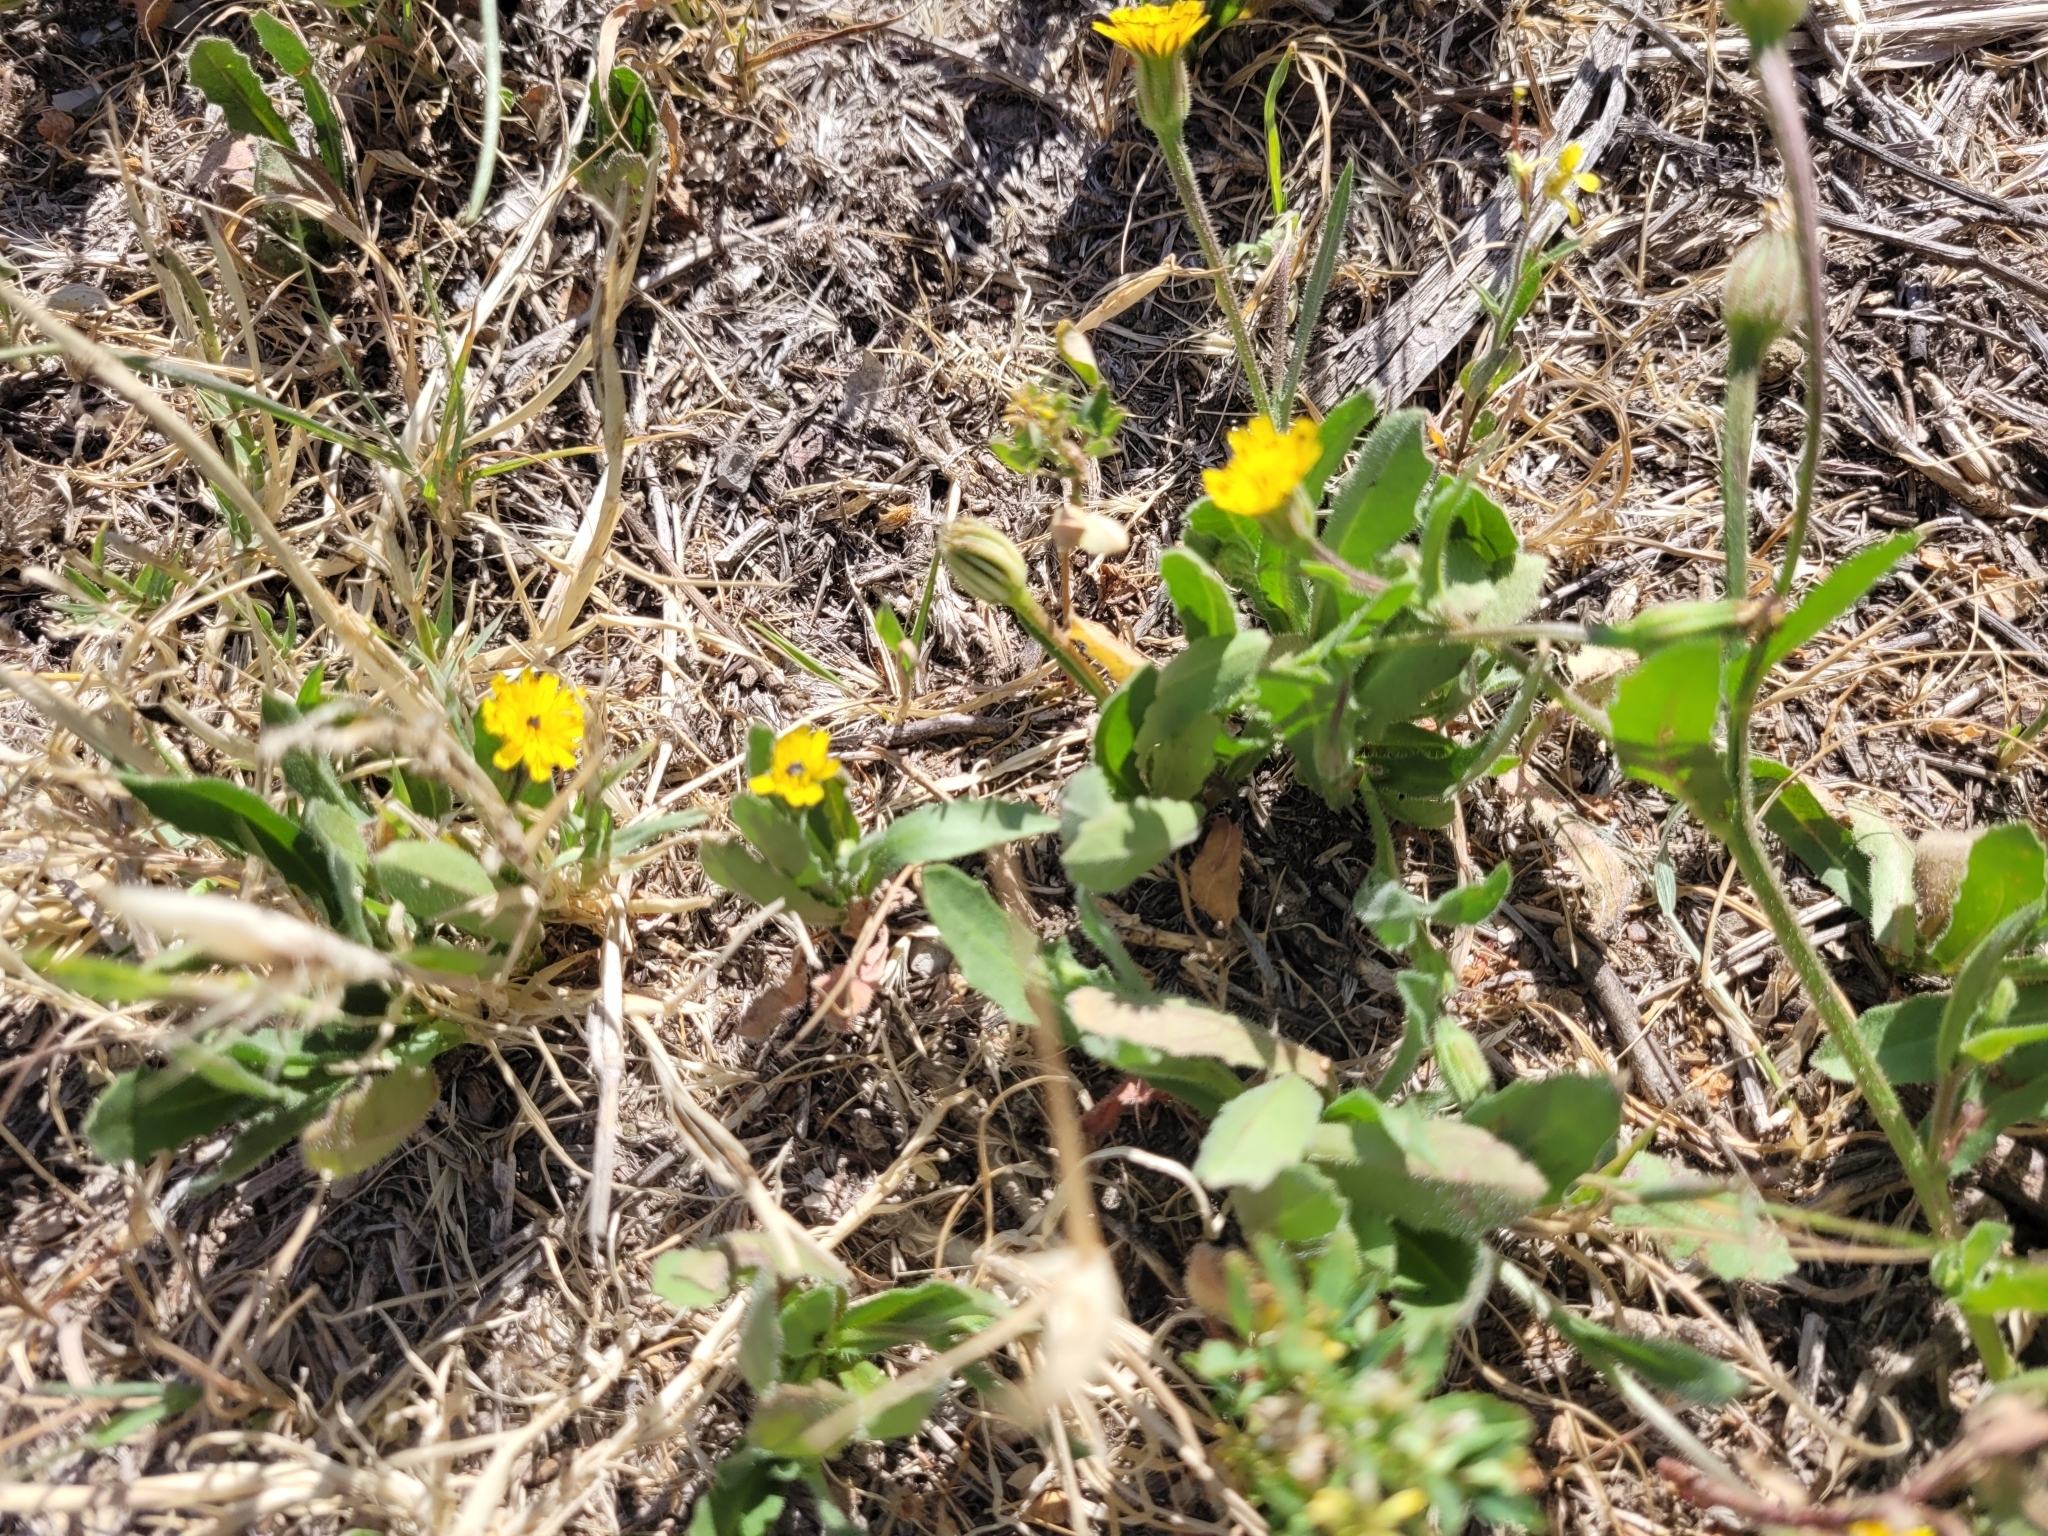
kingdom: Plantae
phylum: Tracheophyta
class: Magnoliopsida
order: Asterales
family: Asteraceae
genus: Hedypnois
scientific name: Hedypnois rhagadioloides
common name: Cretan weed
